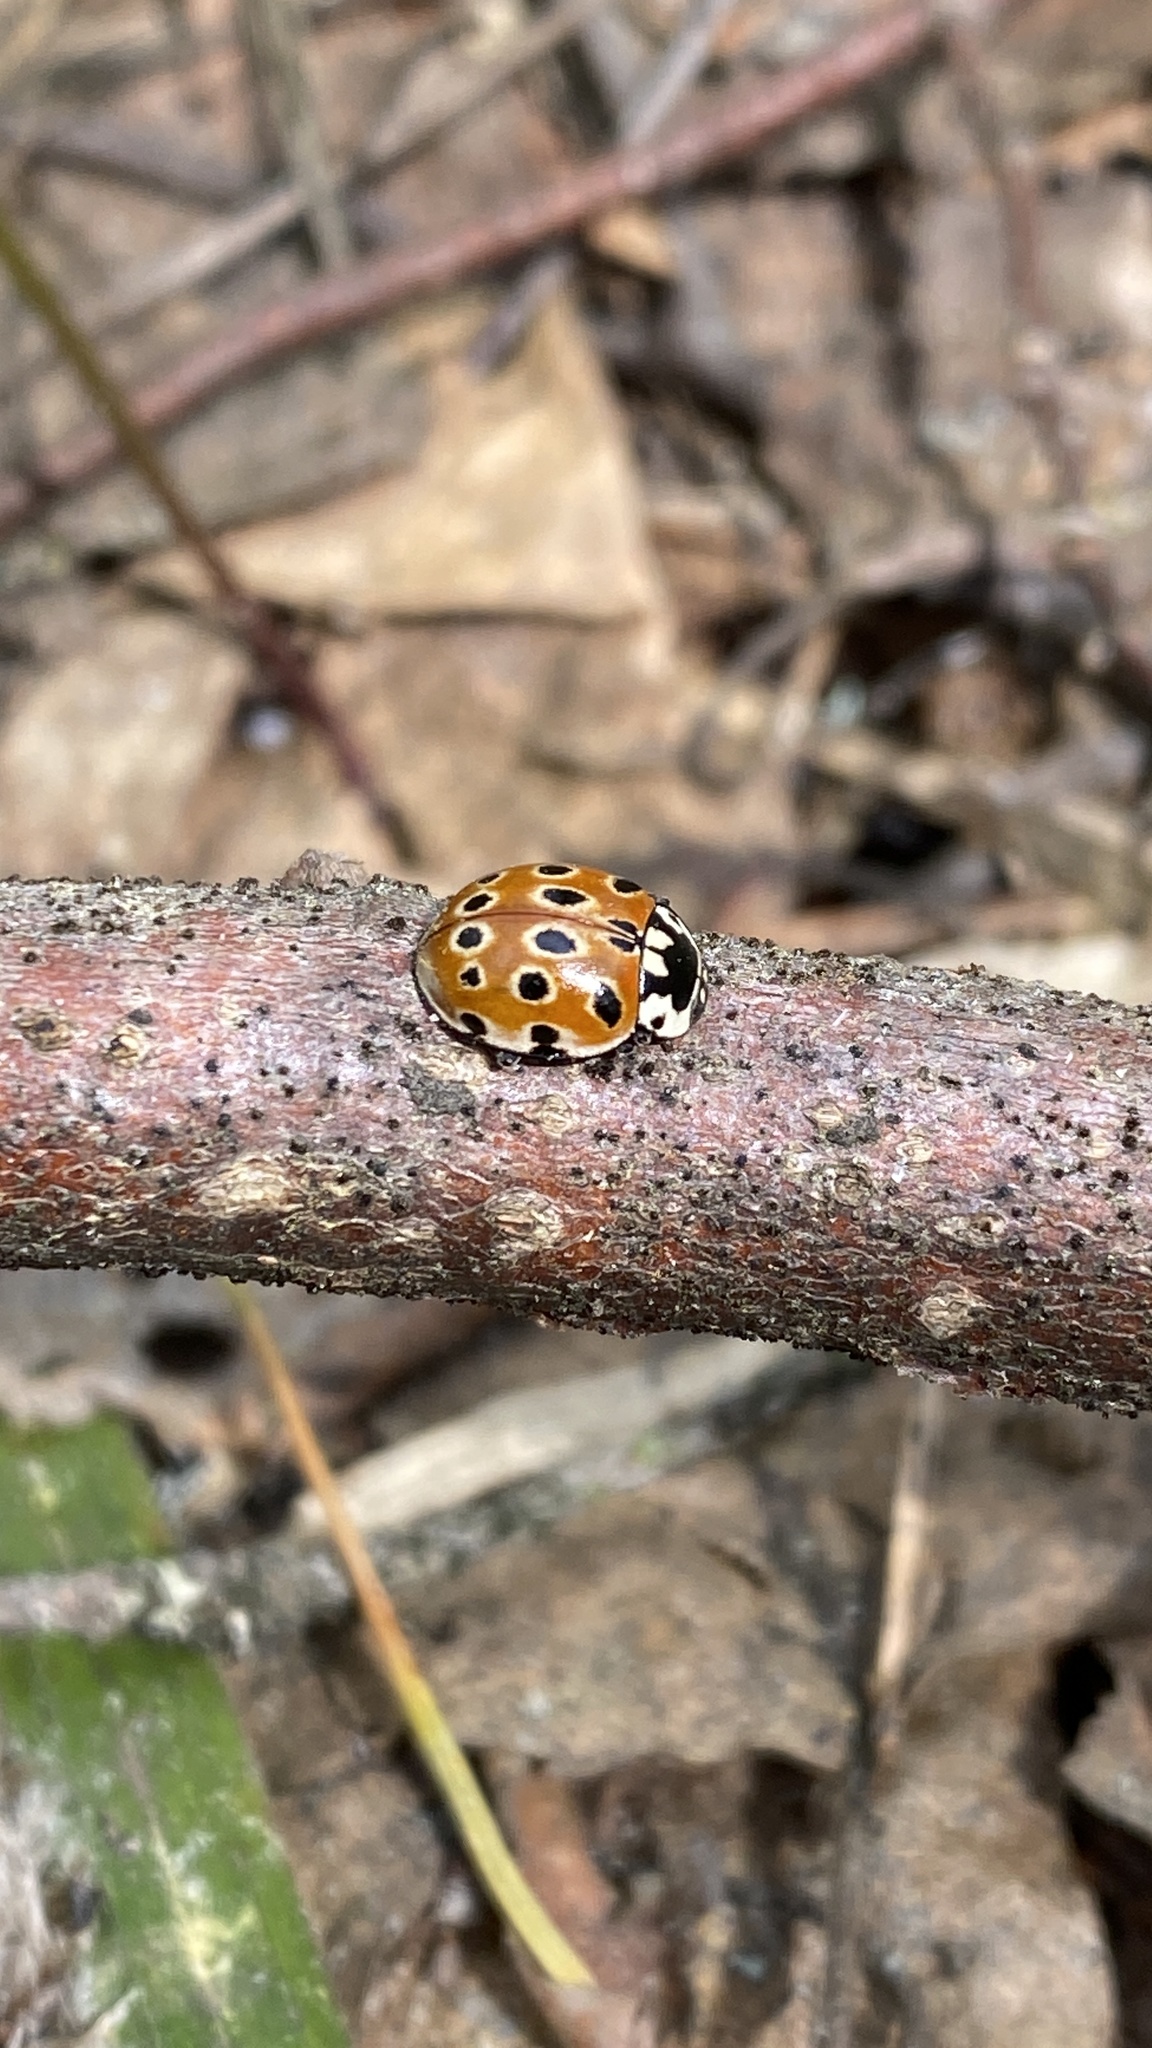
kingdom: Animalia
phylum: Arthropoda
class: Insecta
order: Coleoptera
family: Coccinellidae
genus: Anatis
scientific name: Anatis ocellata
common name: Eyed ladybird
